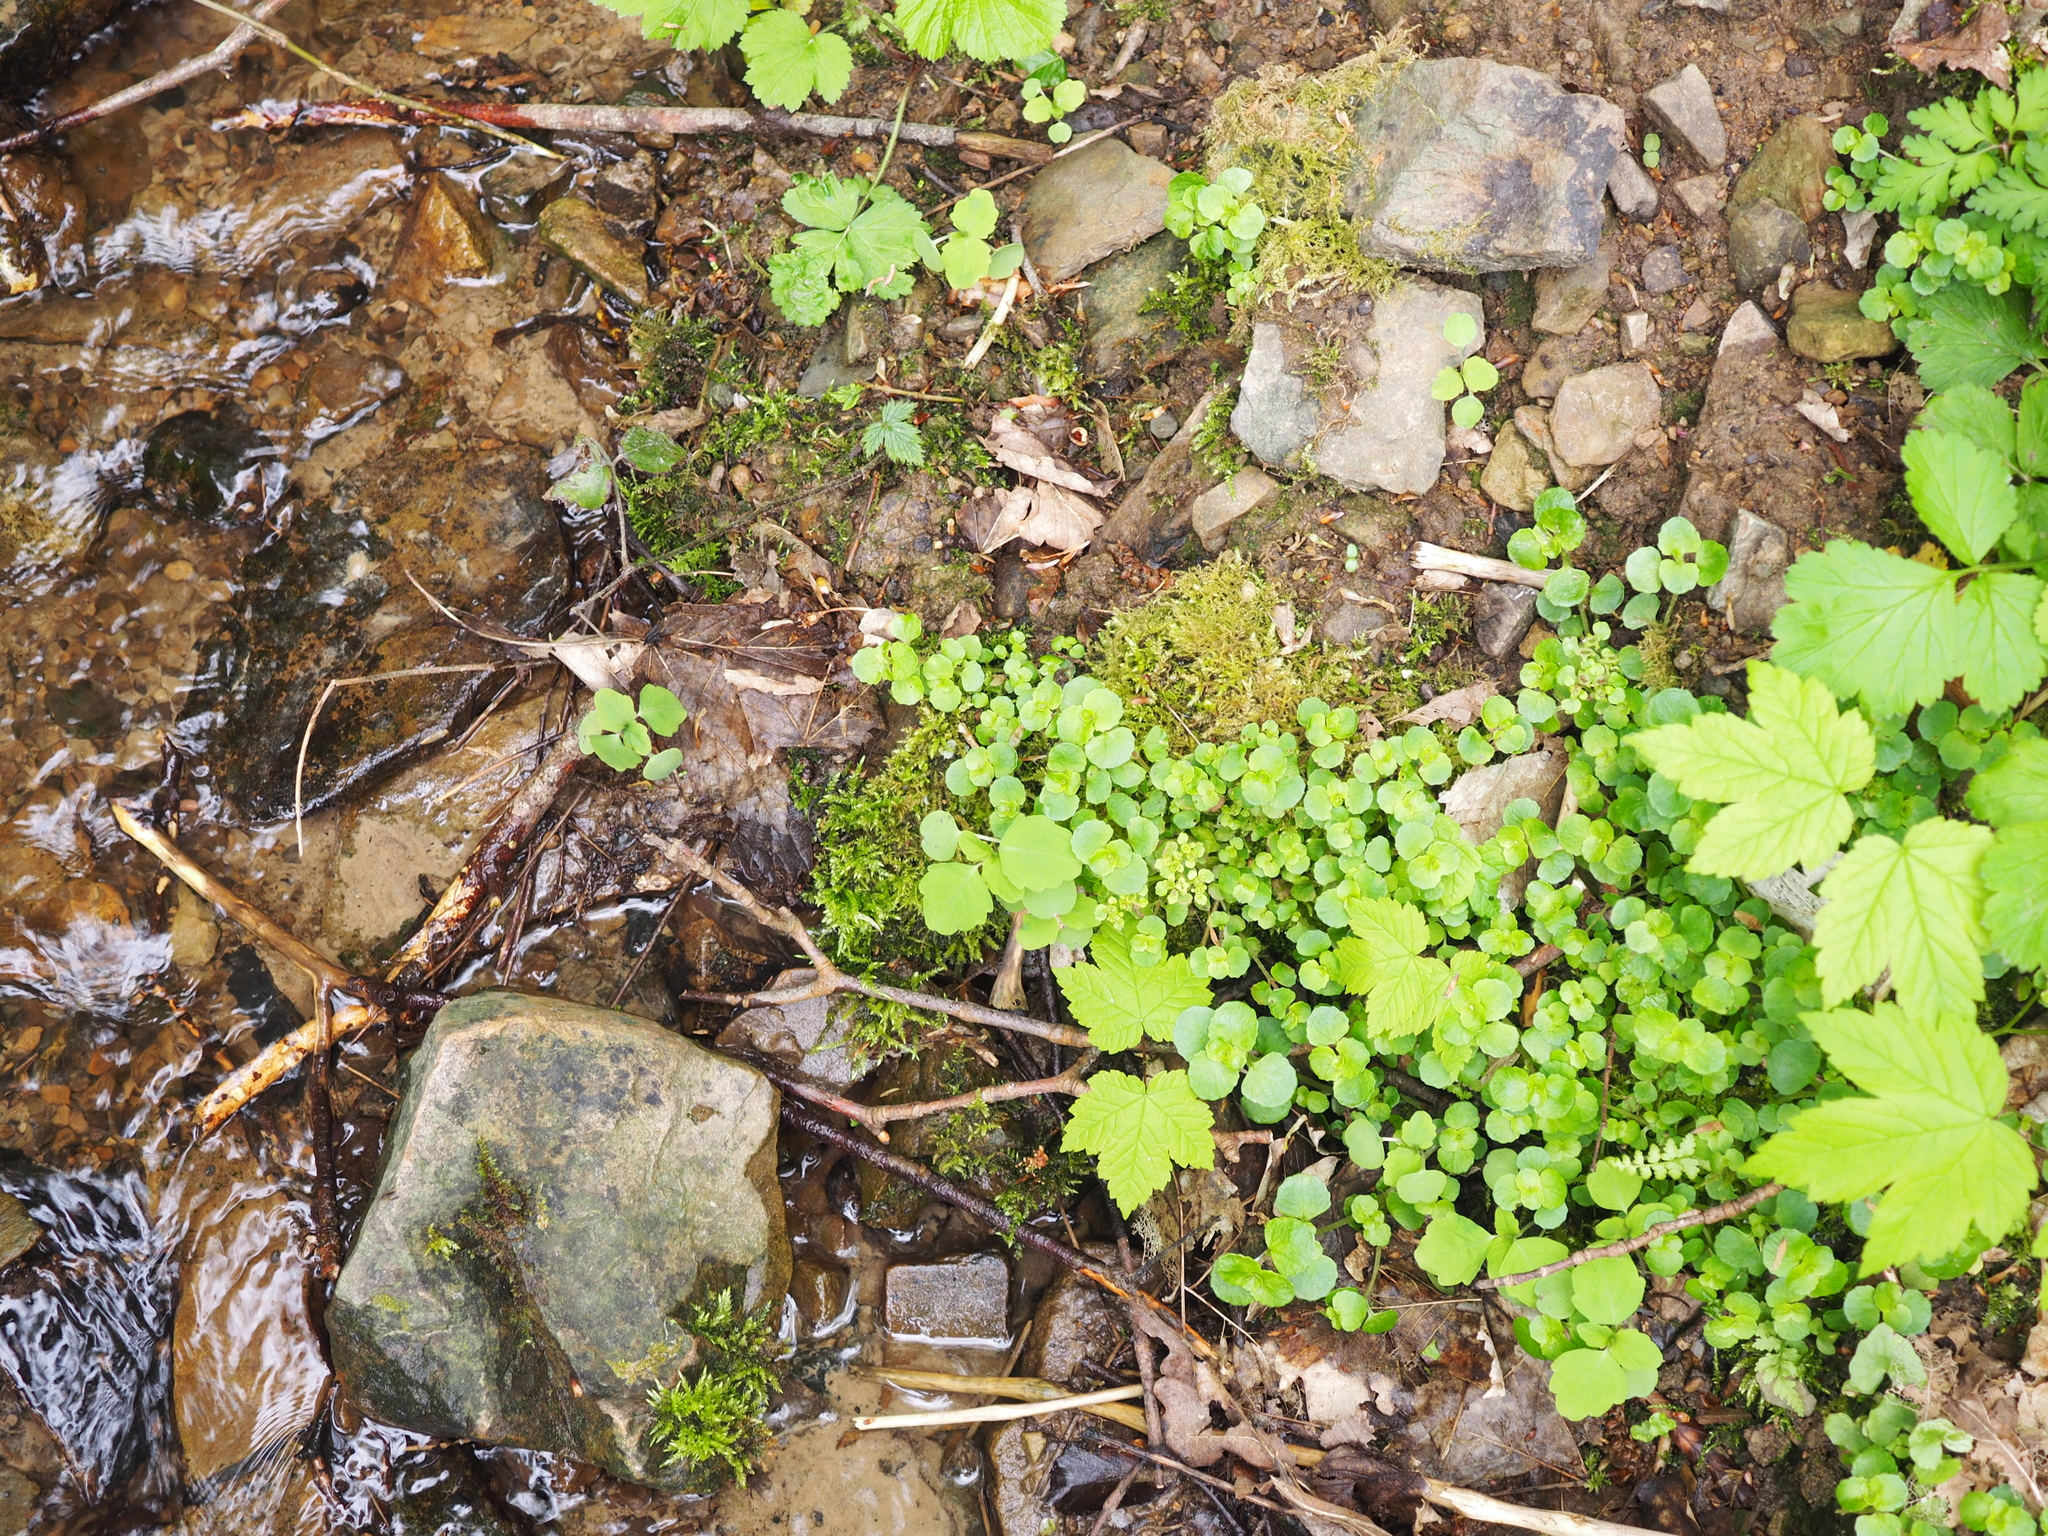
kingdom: Plantae
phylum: Tracheophyta
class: Magnoliopsida
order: Saxifragales
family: Saxifragaceae
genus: Chrysosplenium
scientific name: Chrysosplenium oppositifolium
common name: Opposite-leaved golden-saxifrage
